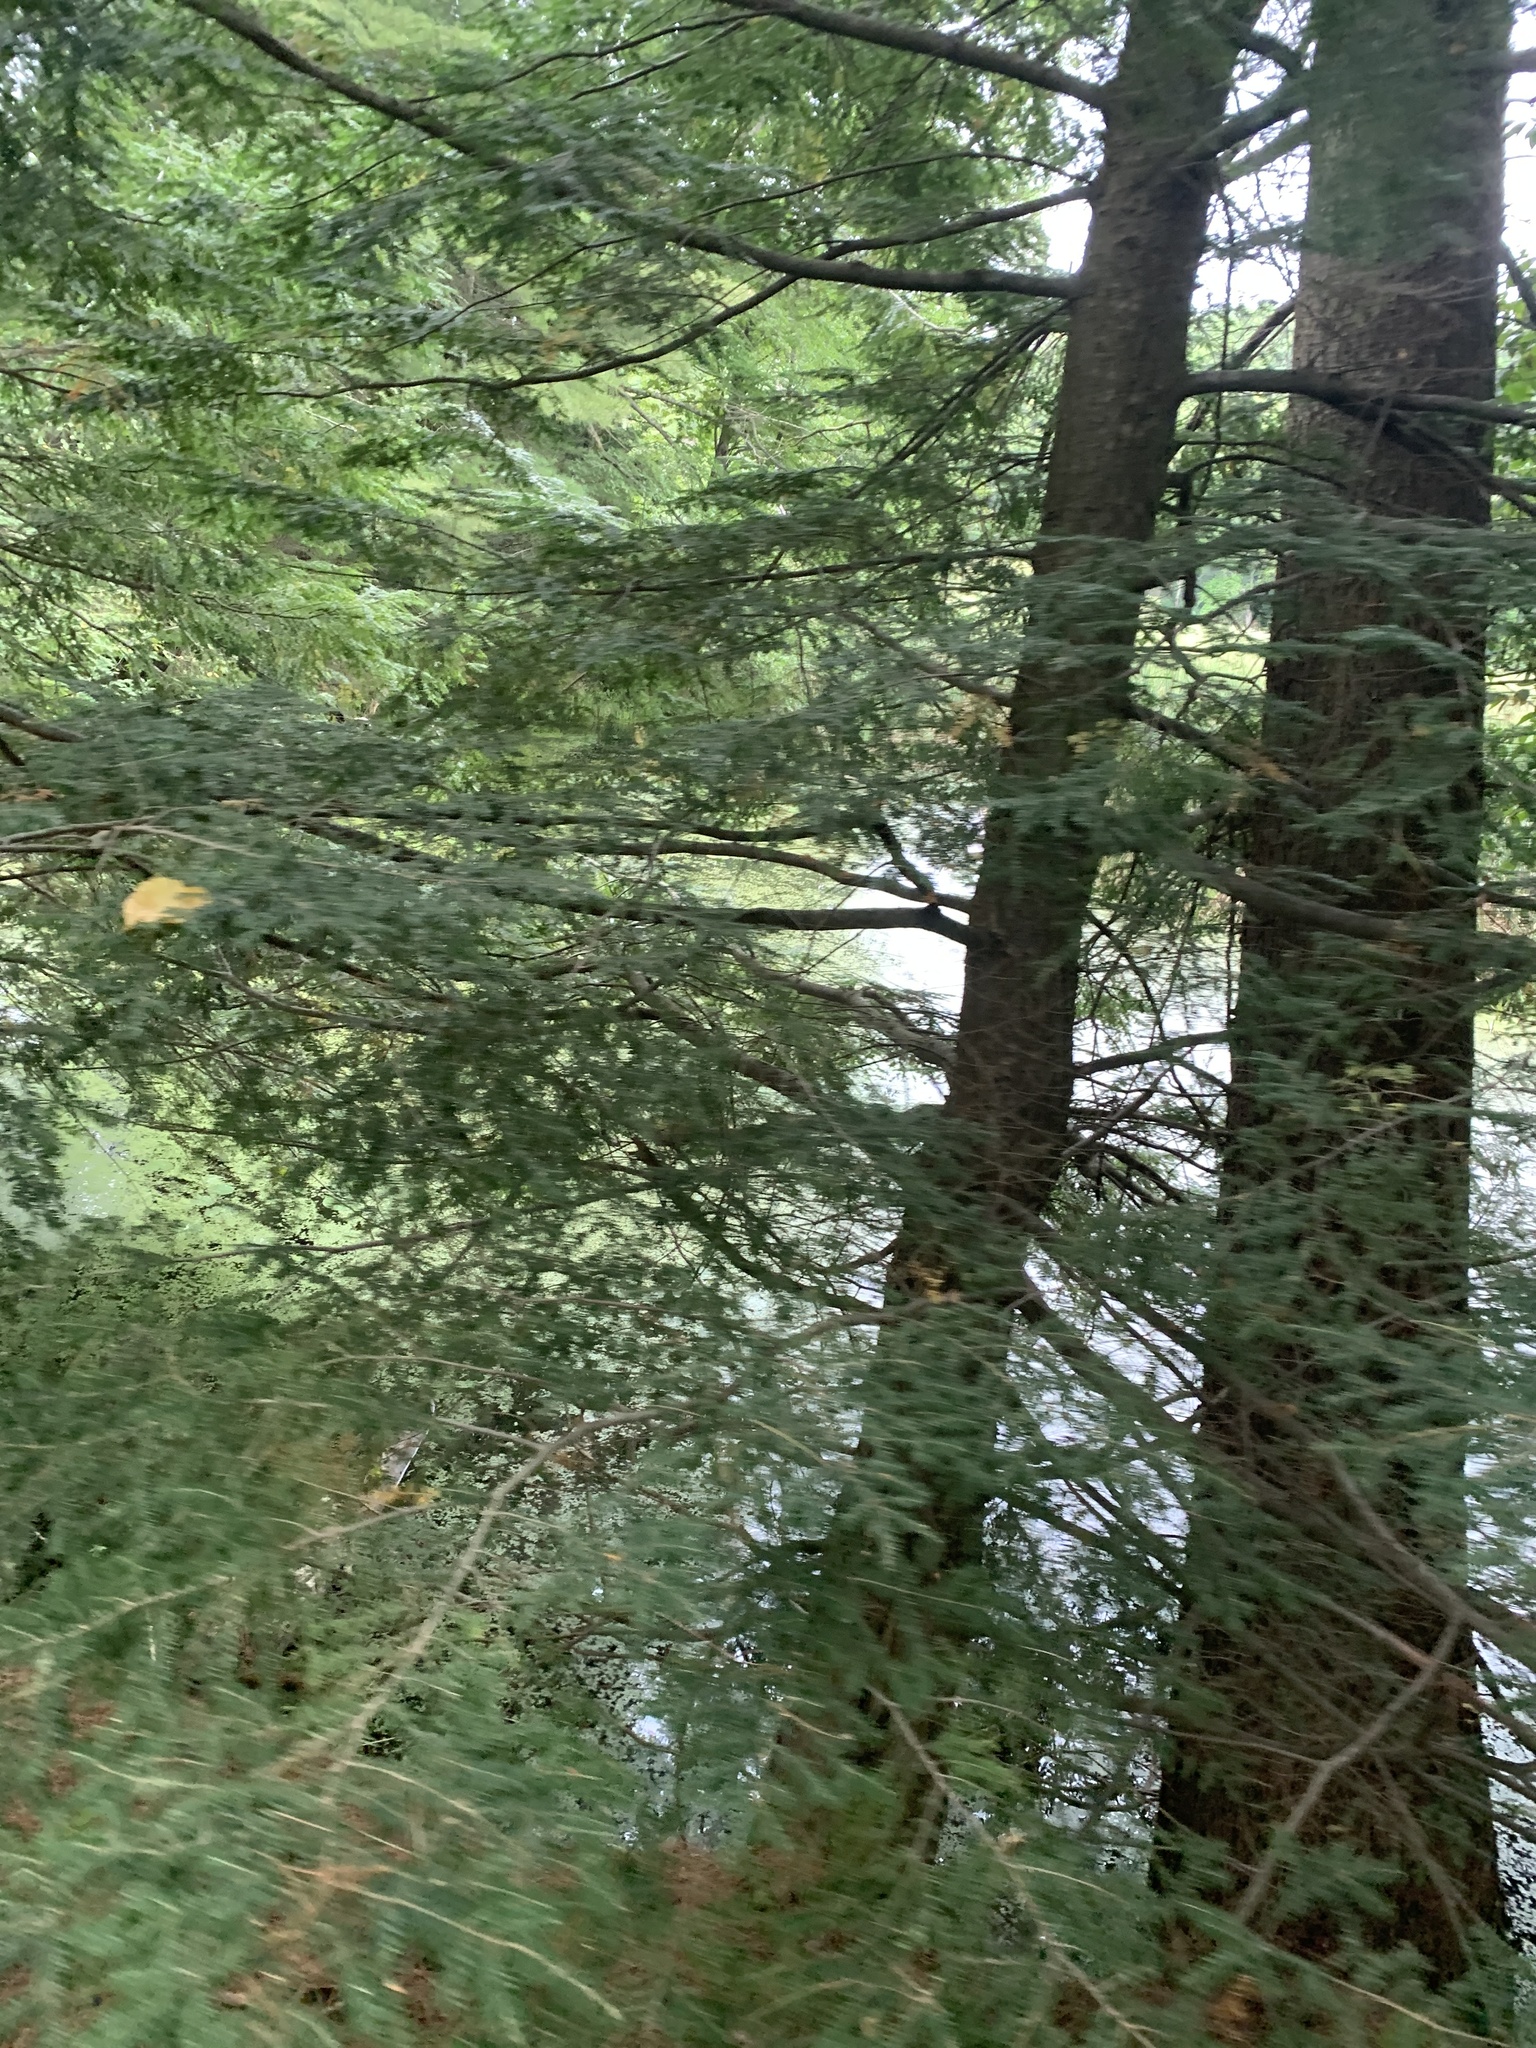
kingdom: Plantae
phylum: Tracheophyta
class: Pinopsida
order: Pinales
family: Pinaceae
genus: Tsuga
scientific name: Tsuga canadensis
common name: Eastern hemlock
